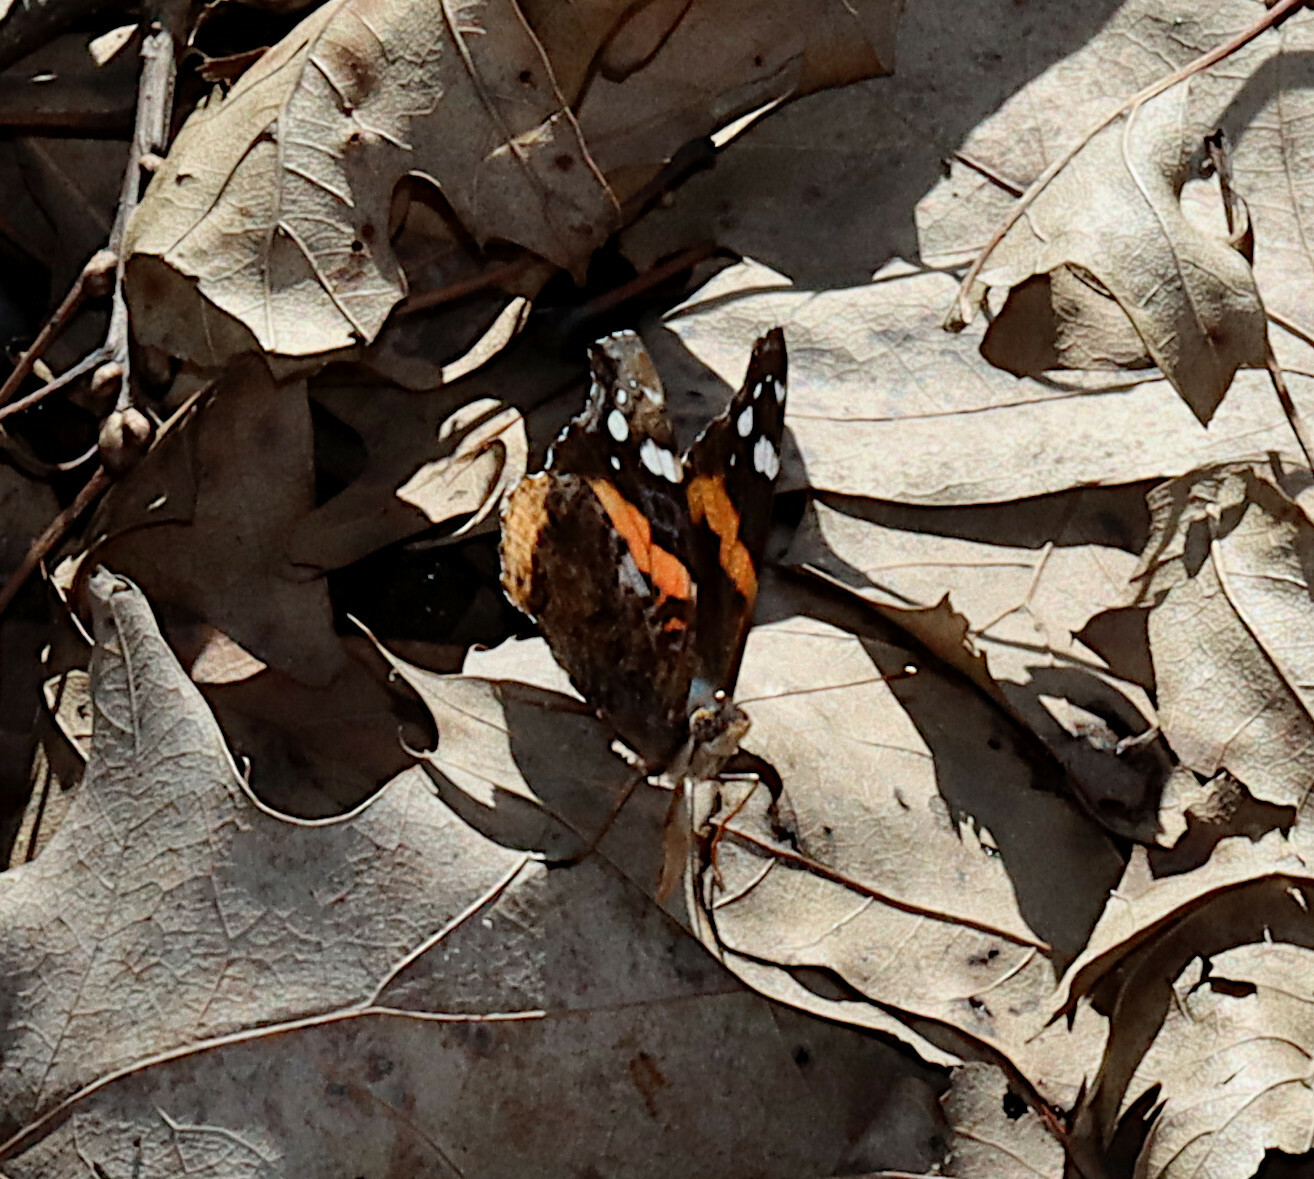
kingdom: Animalia
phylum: Arthropoda
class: Insecta
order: Lepidoptera
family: Nymphalidae
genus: Vanessa
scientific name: Vanessa atalanta
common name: Red admiral
